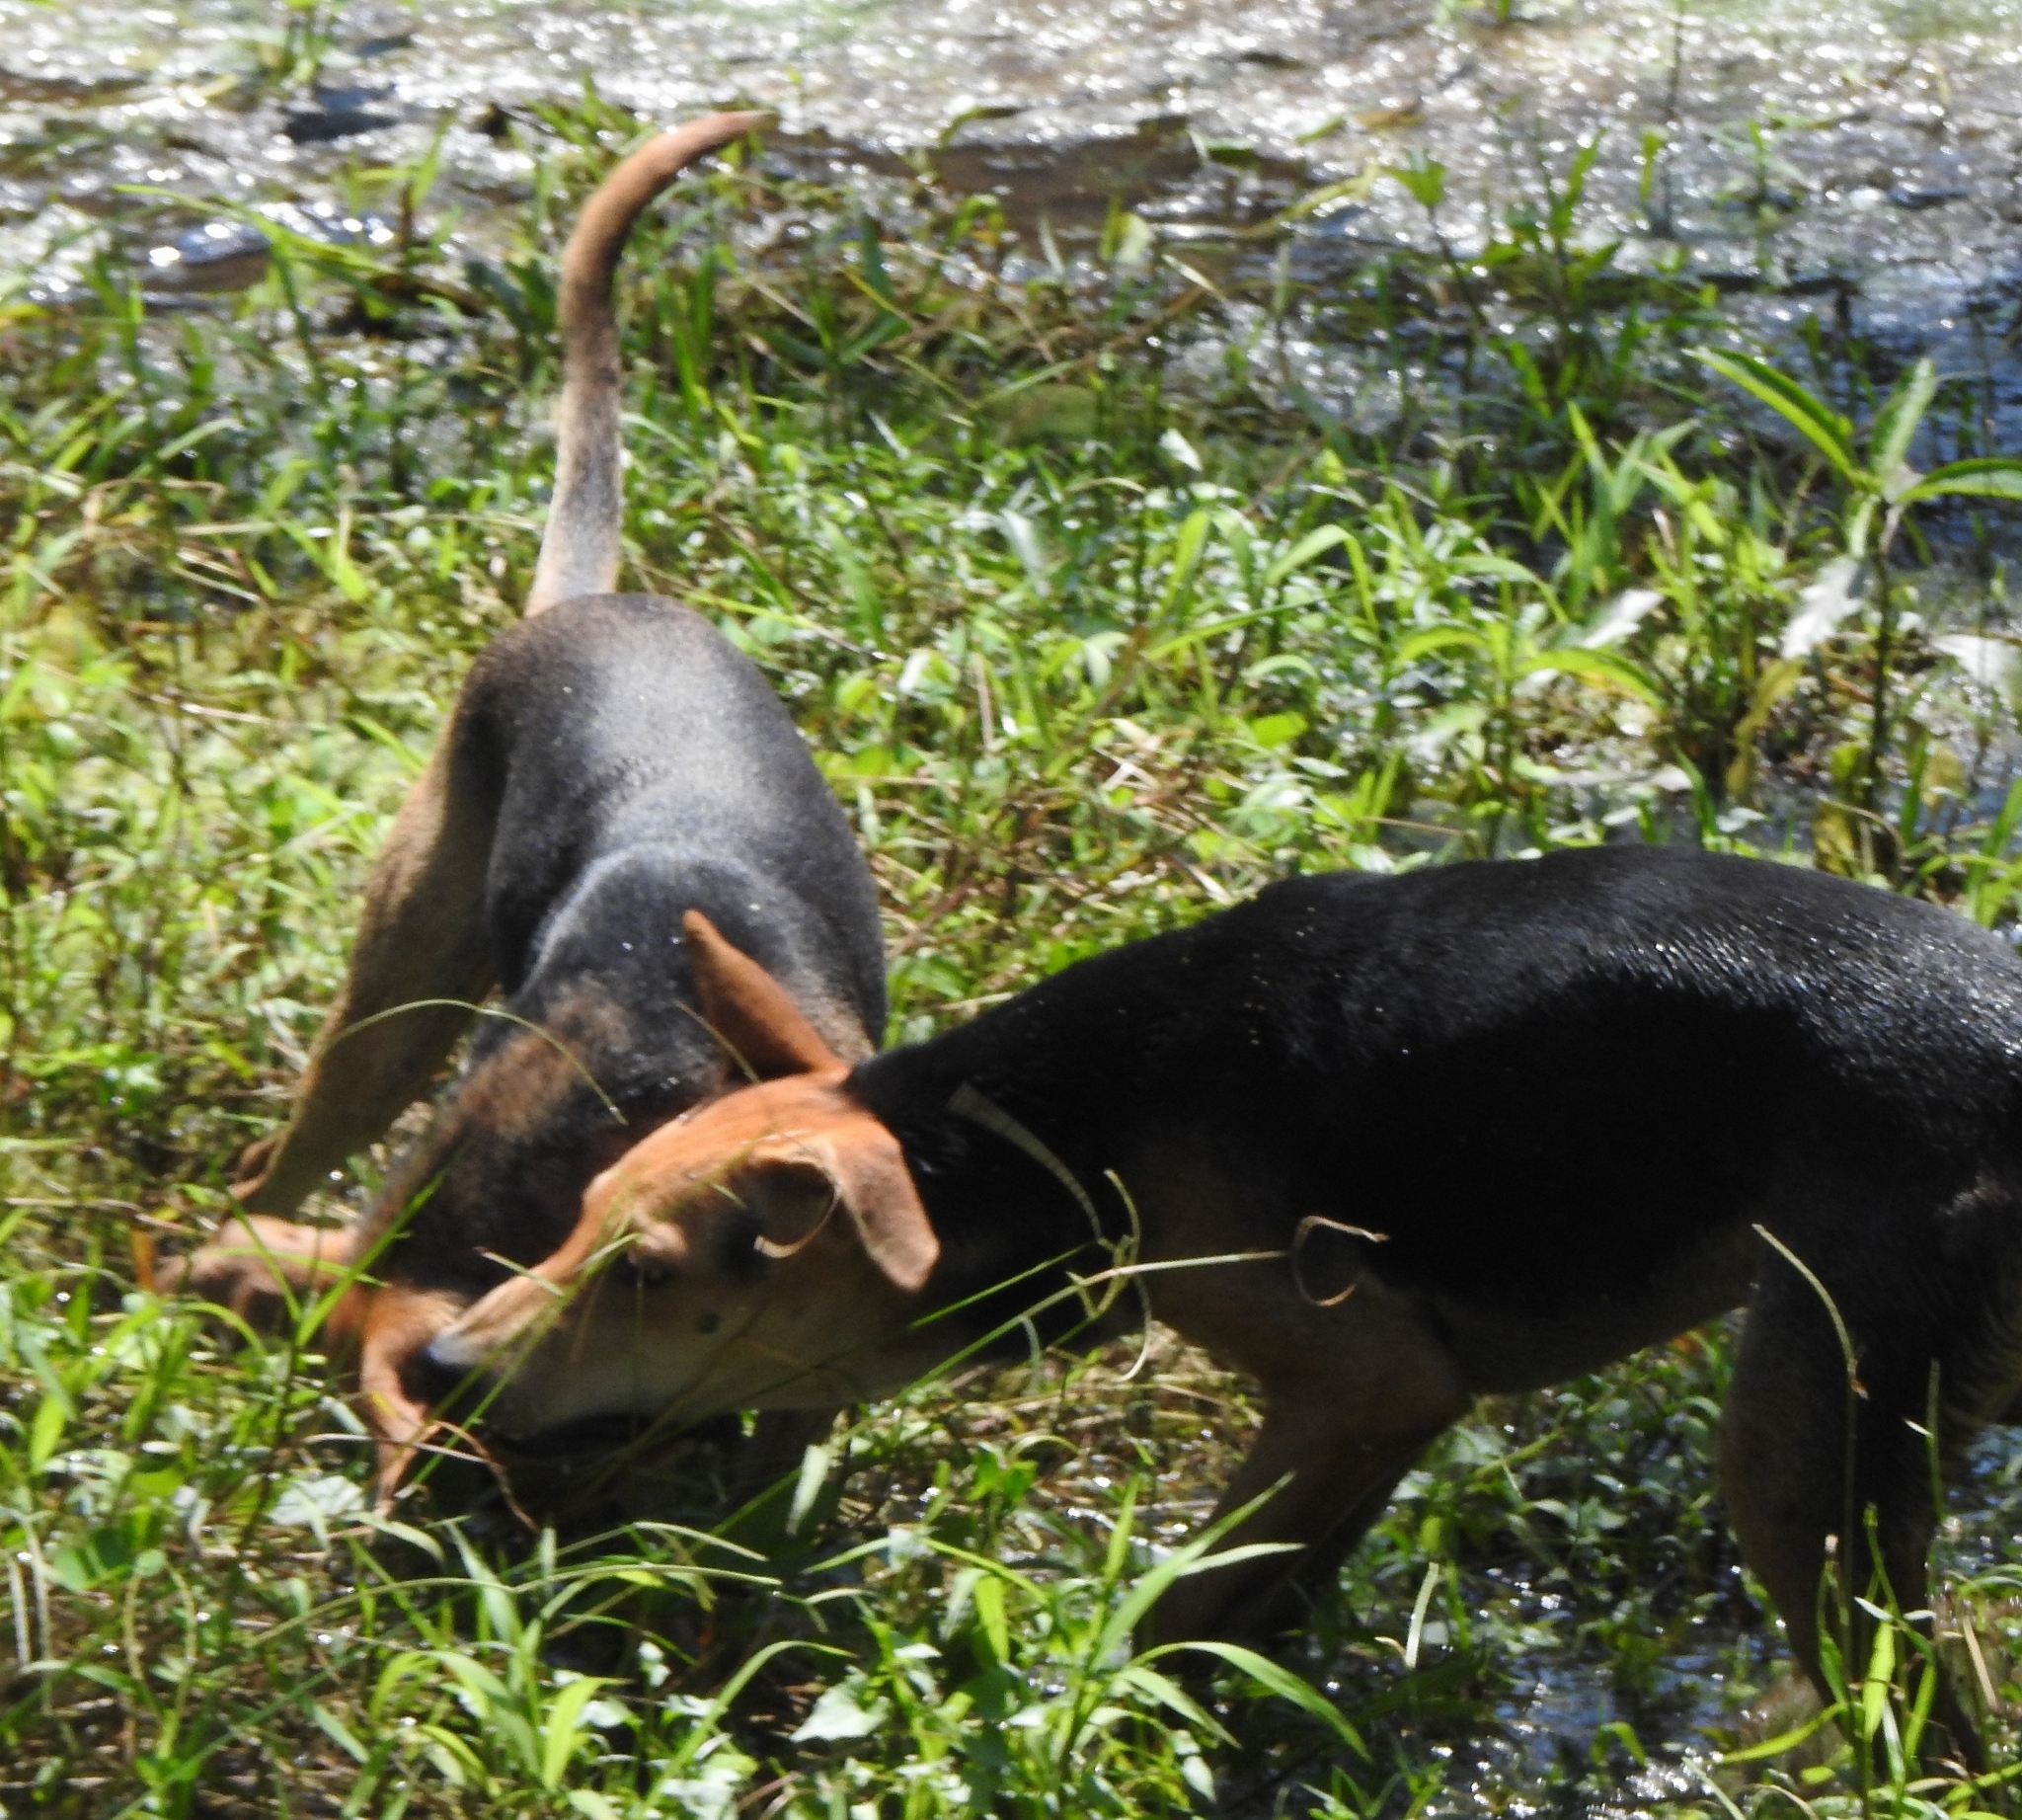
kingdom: Animalia
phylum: Chordata
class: Mammalia
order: Carnivora
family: Canidae
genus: Canis
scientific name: Canis lupus
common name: Gray wolf
